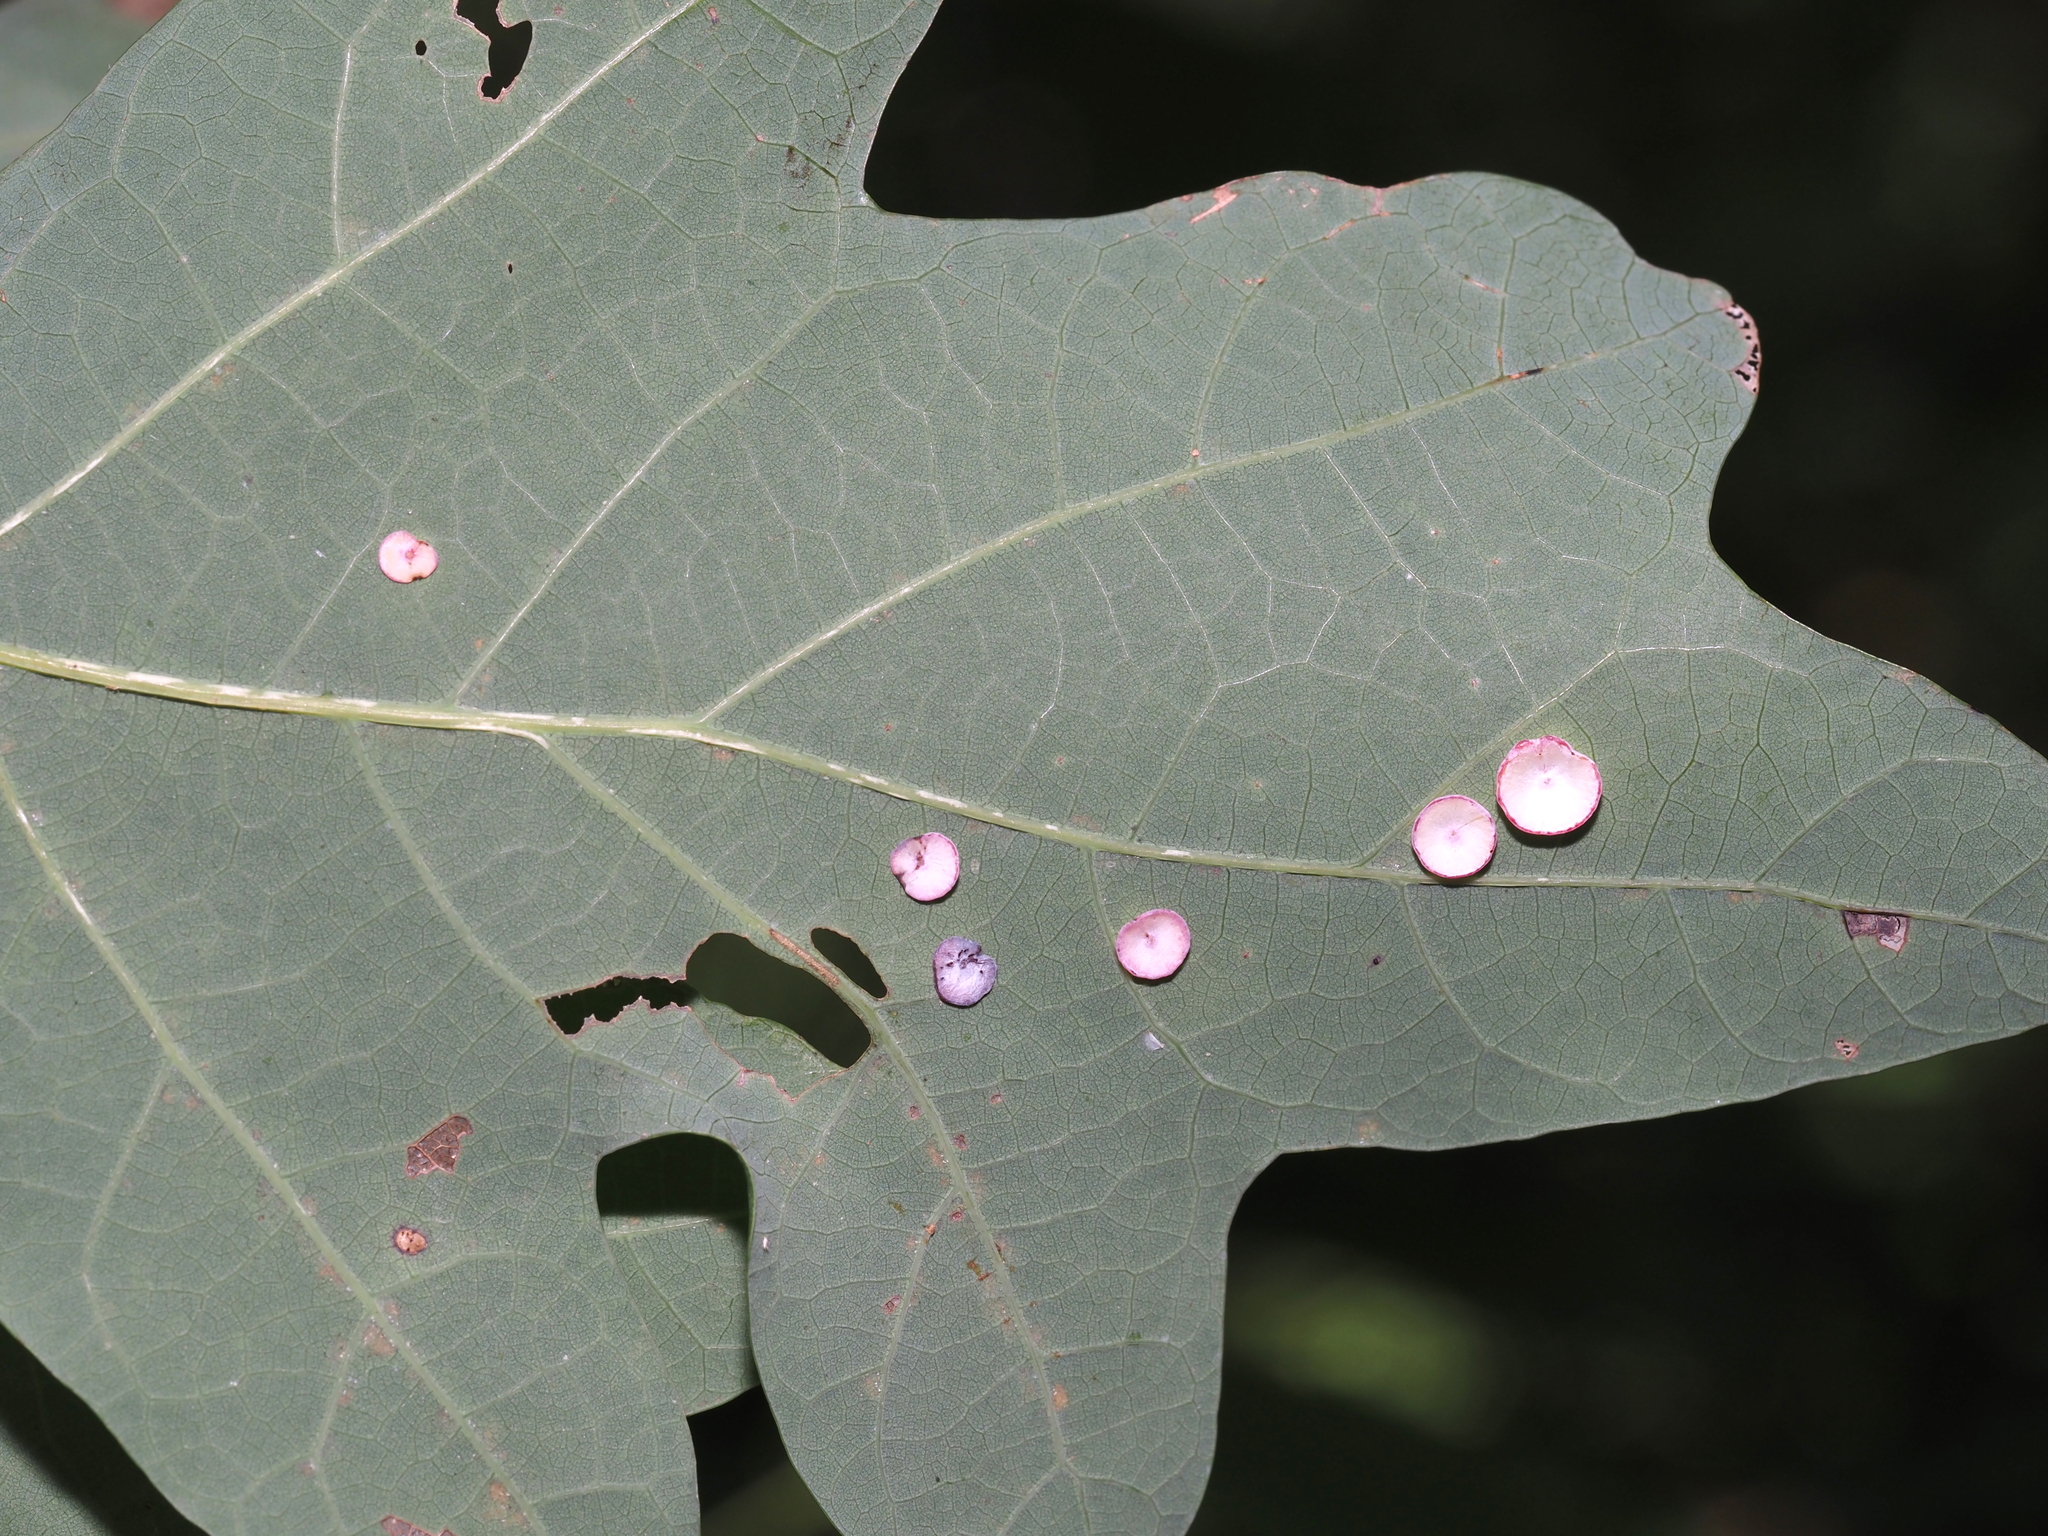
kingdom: Animalia
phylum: Arthropoda
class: Insecta
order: Hymenoptera
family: Cynipidae
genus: Phylloteras
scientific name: Phylloteras poculum
